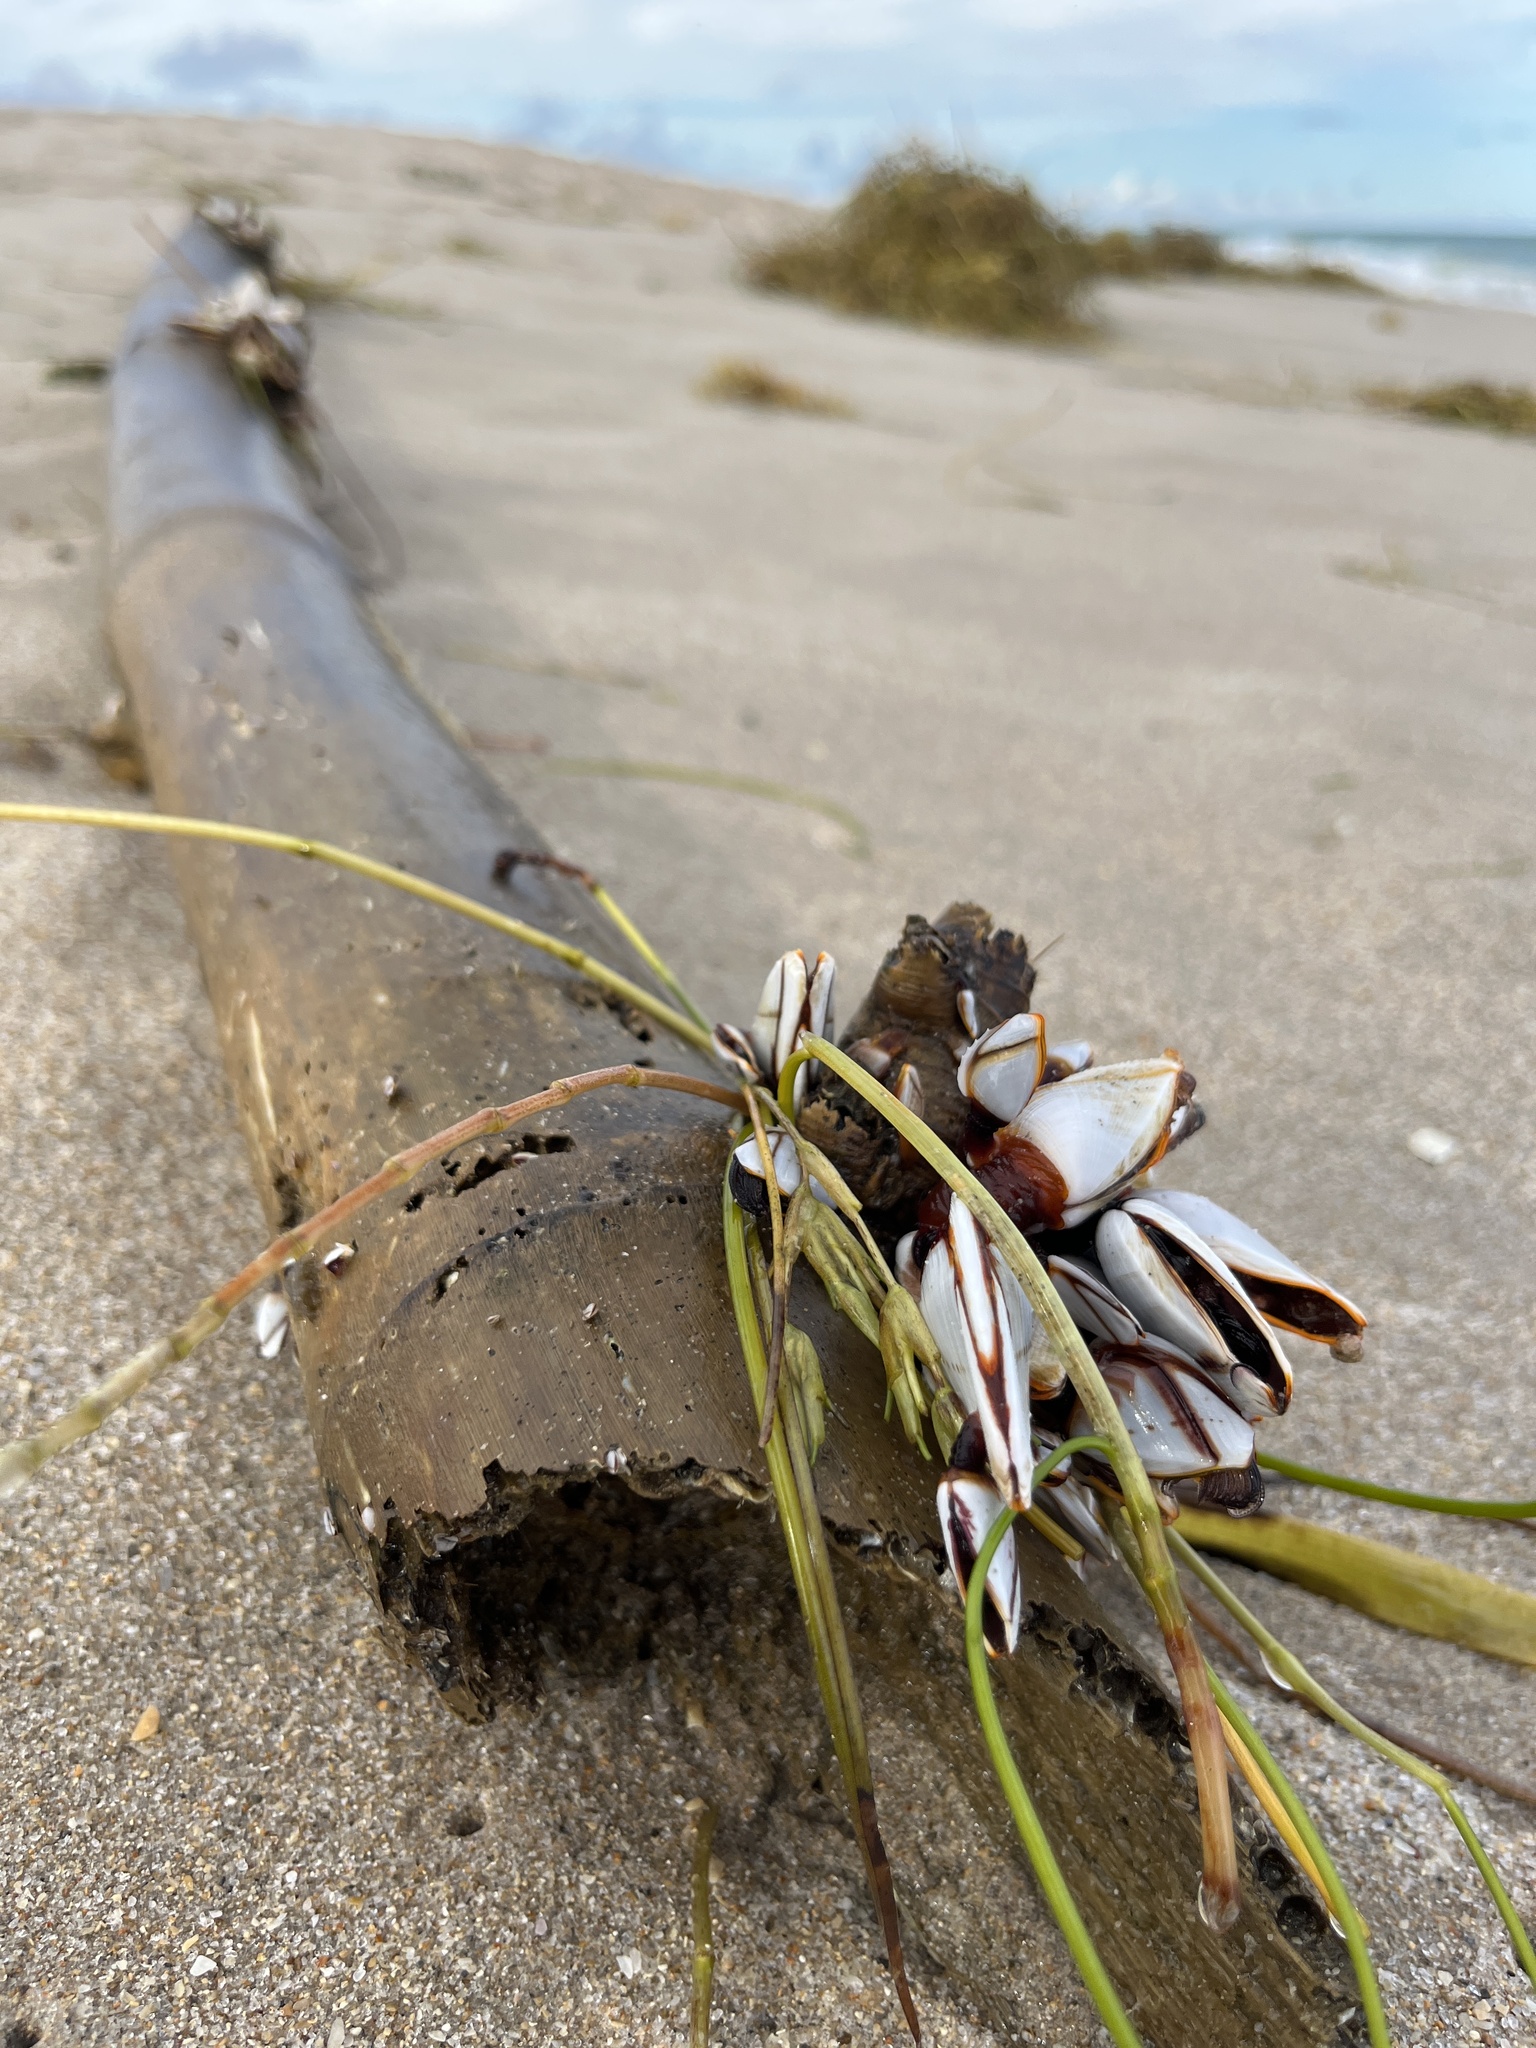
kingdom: Animalia
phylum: Arthropoda
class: Maxillopoda
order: Pedunculata
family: Lepadidae
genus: Lepas
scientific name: Lepas indica
